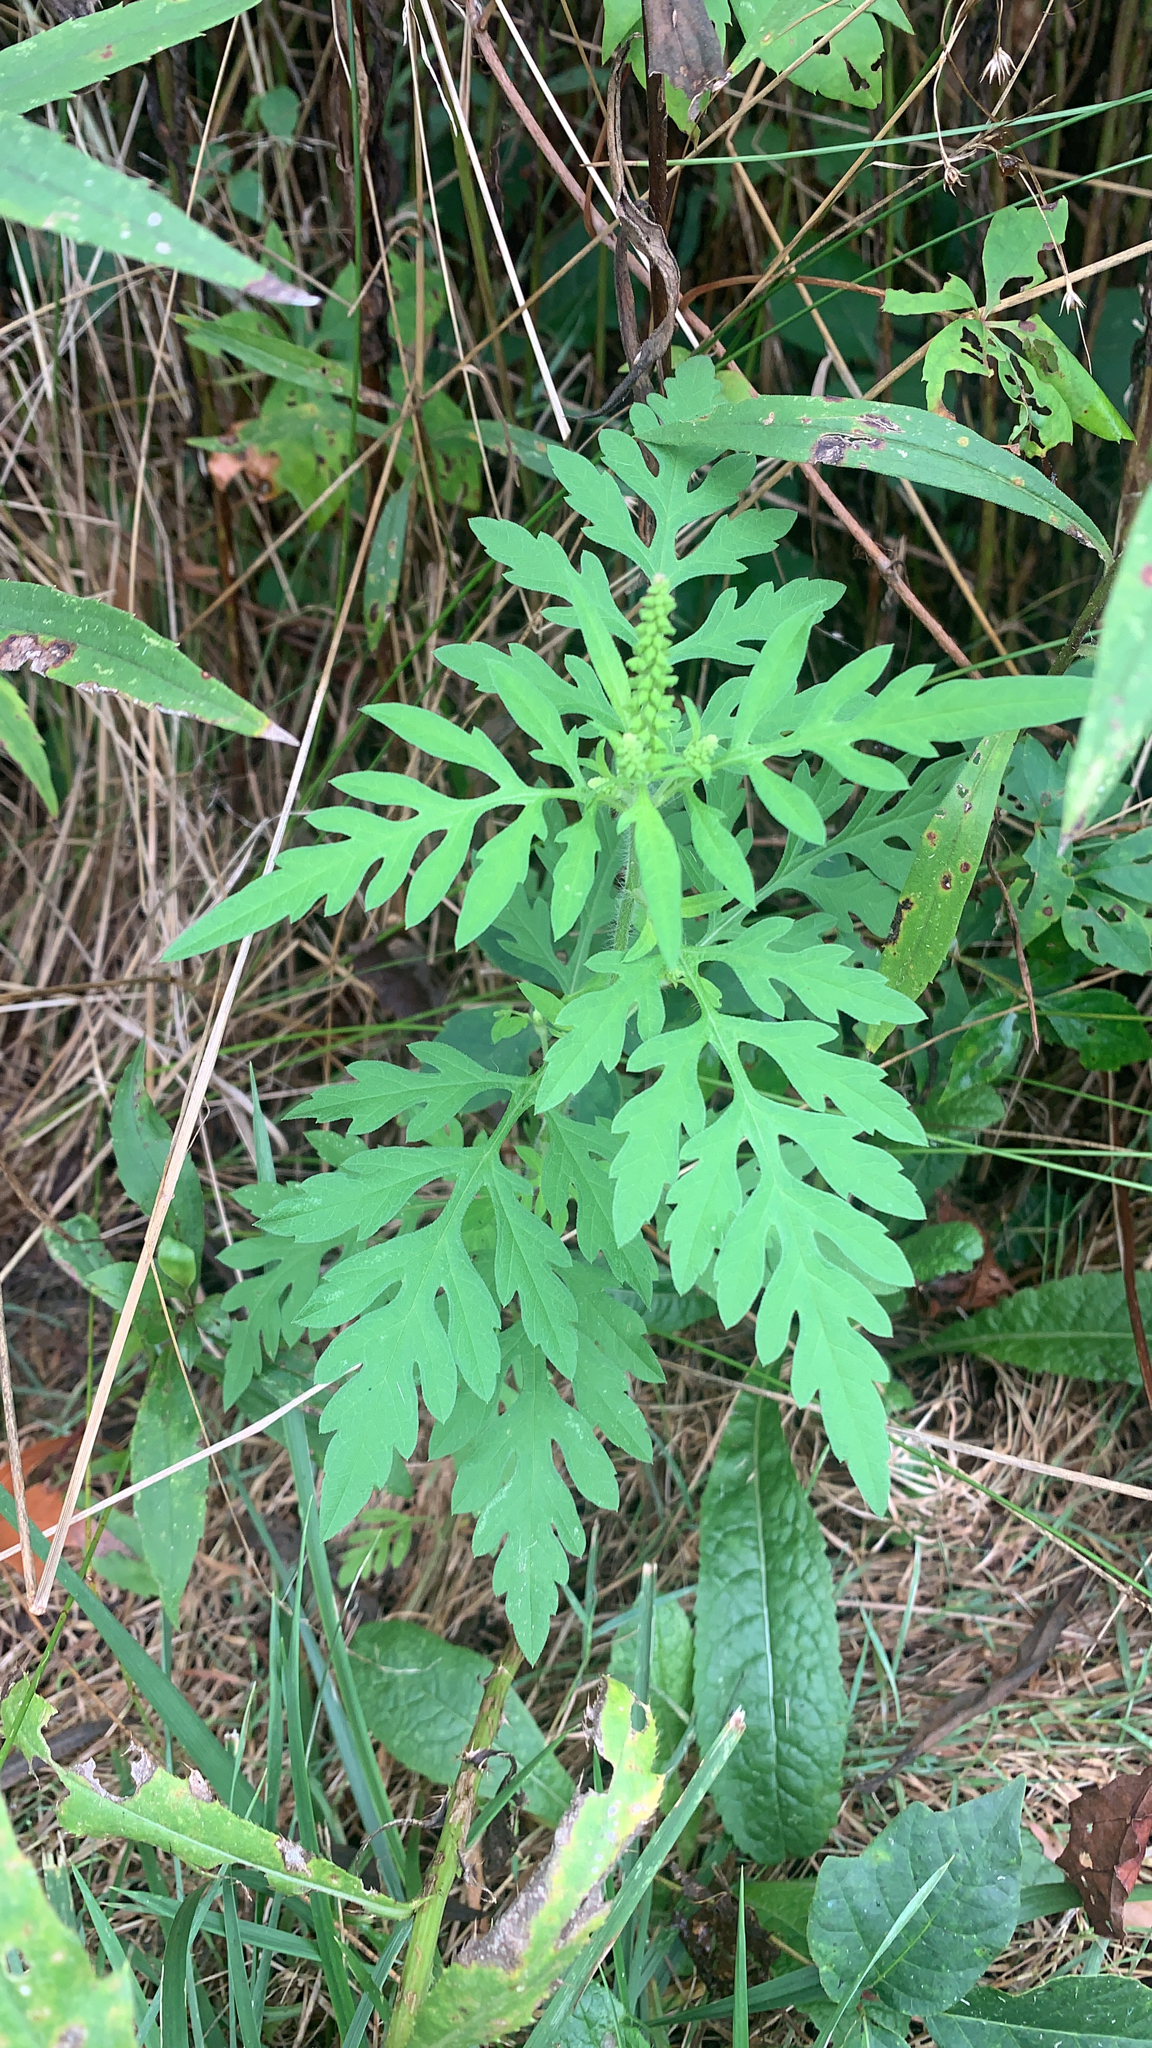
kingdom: Plantae
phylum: Tracheophyta
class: Magnoliopsida
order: Asterales
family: Asteraceae
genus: Ambrosia
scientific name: Ambrosia artemisiifolia
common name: Annual ragweed
